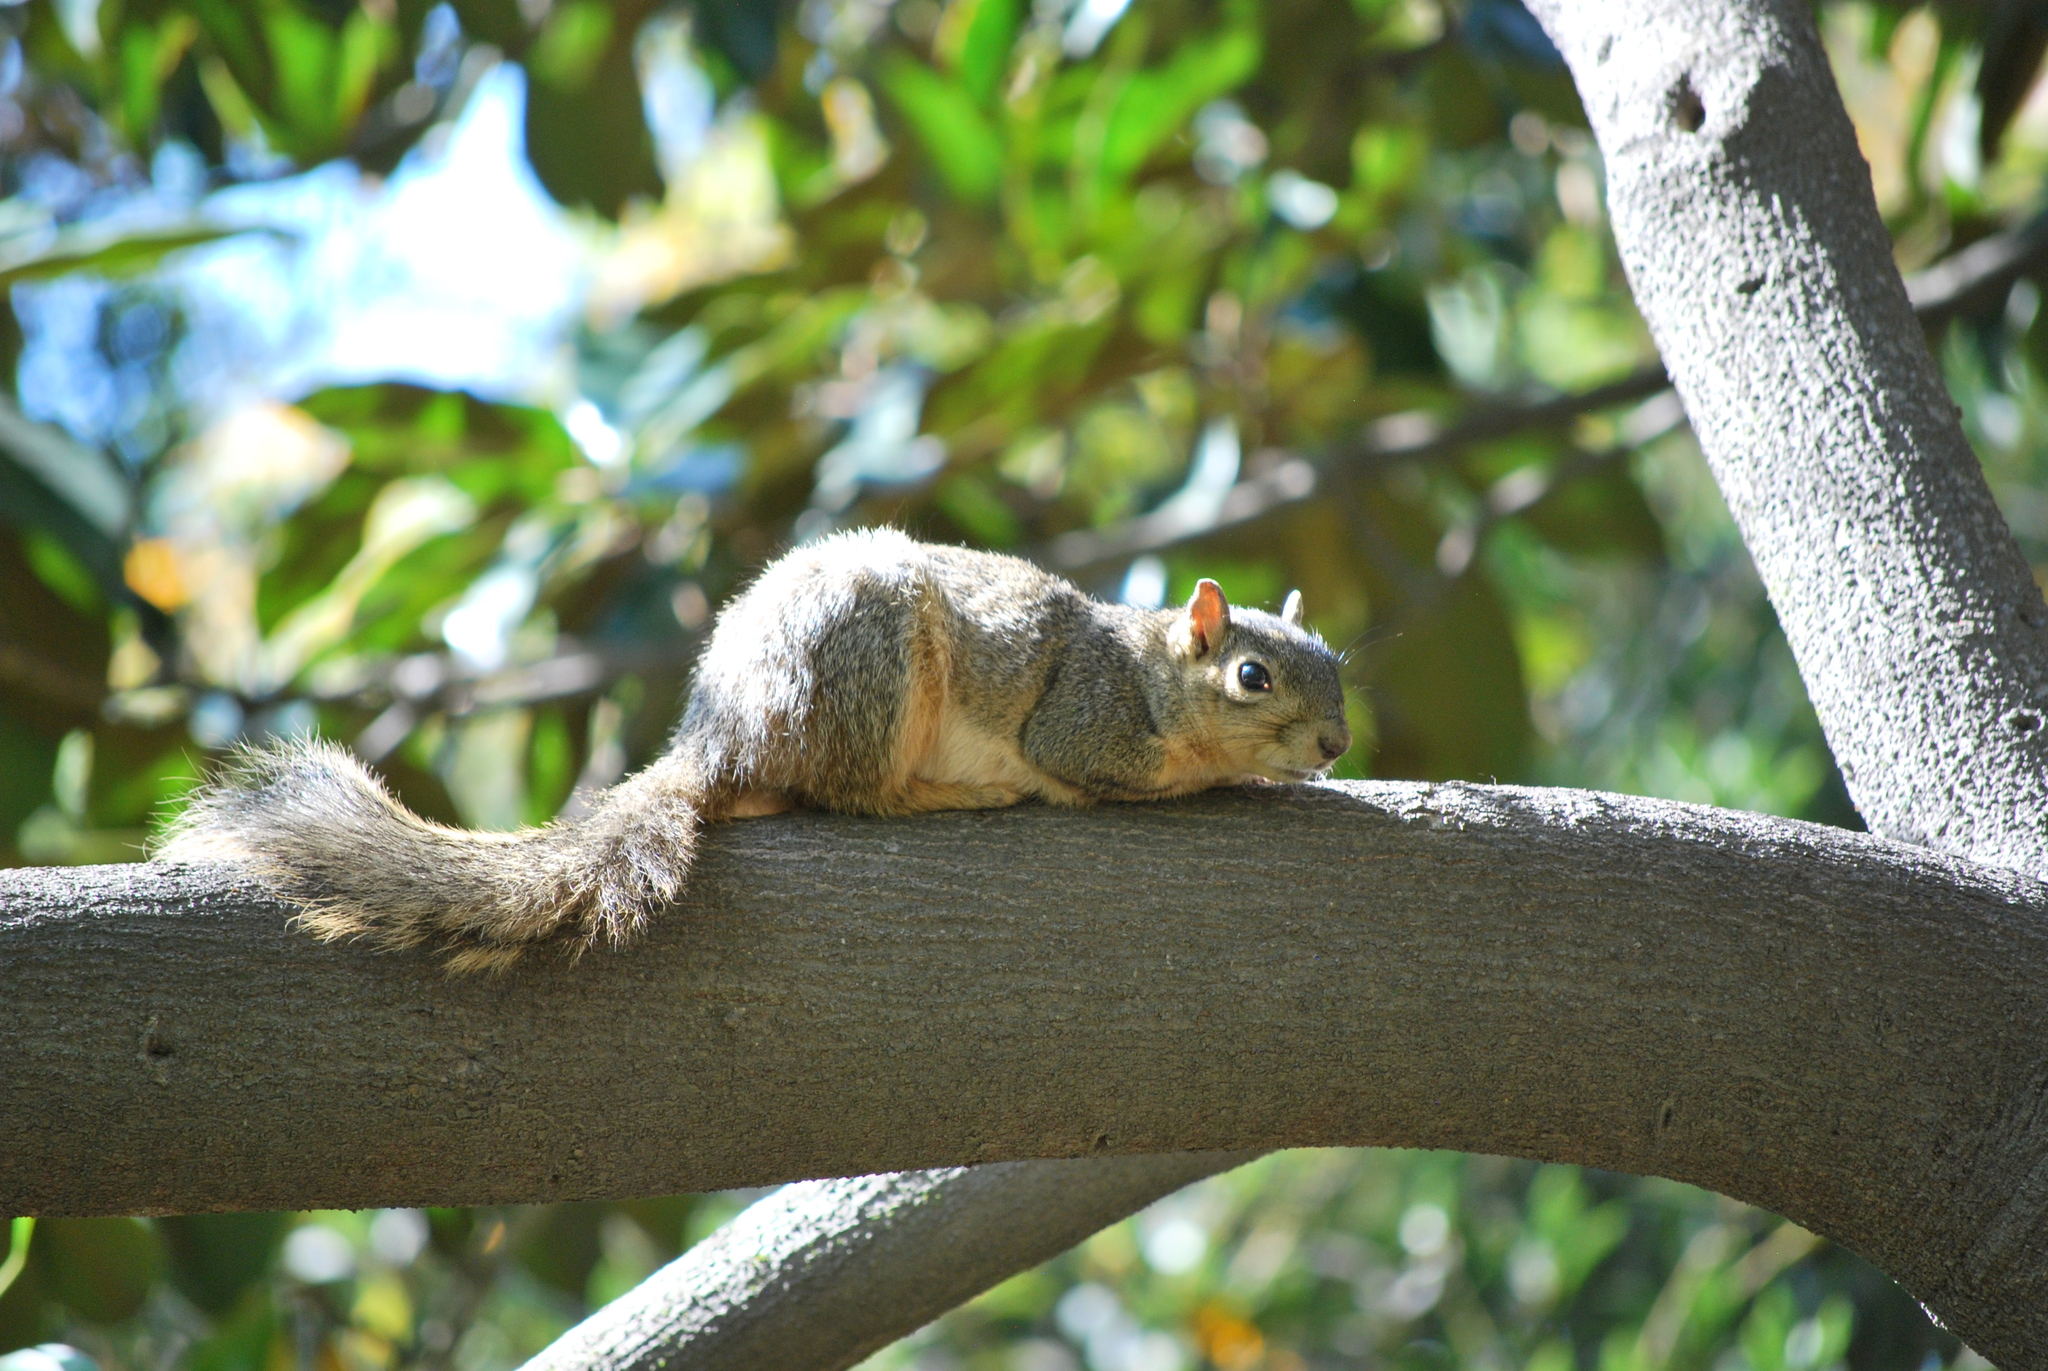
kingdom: Animalia
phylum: Chordata
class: Mammalia
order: Rodentia
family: Sciuridae
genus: Sciurus
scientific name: Sciurus niger
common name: Fox squirrel
